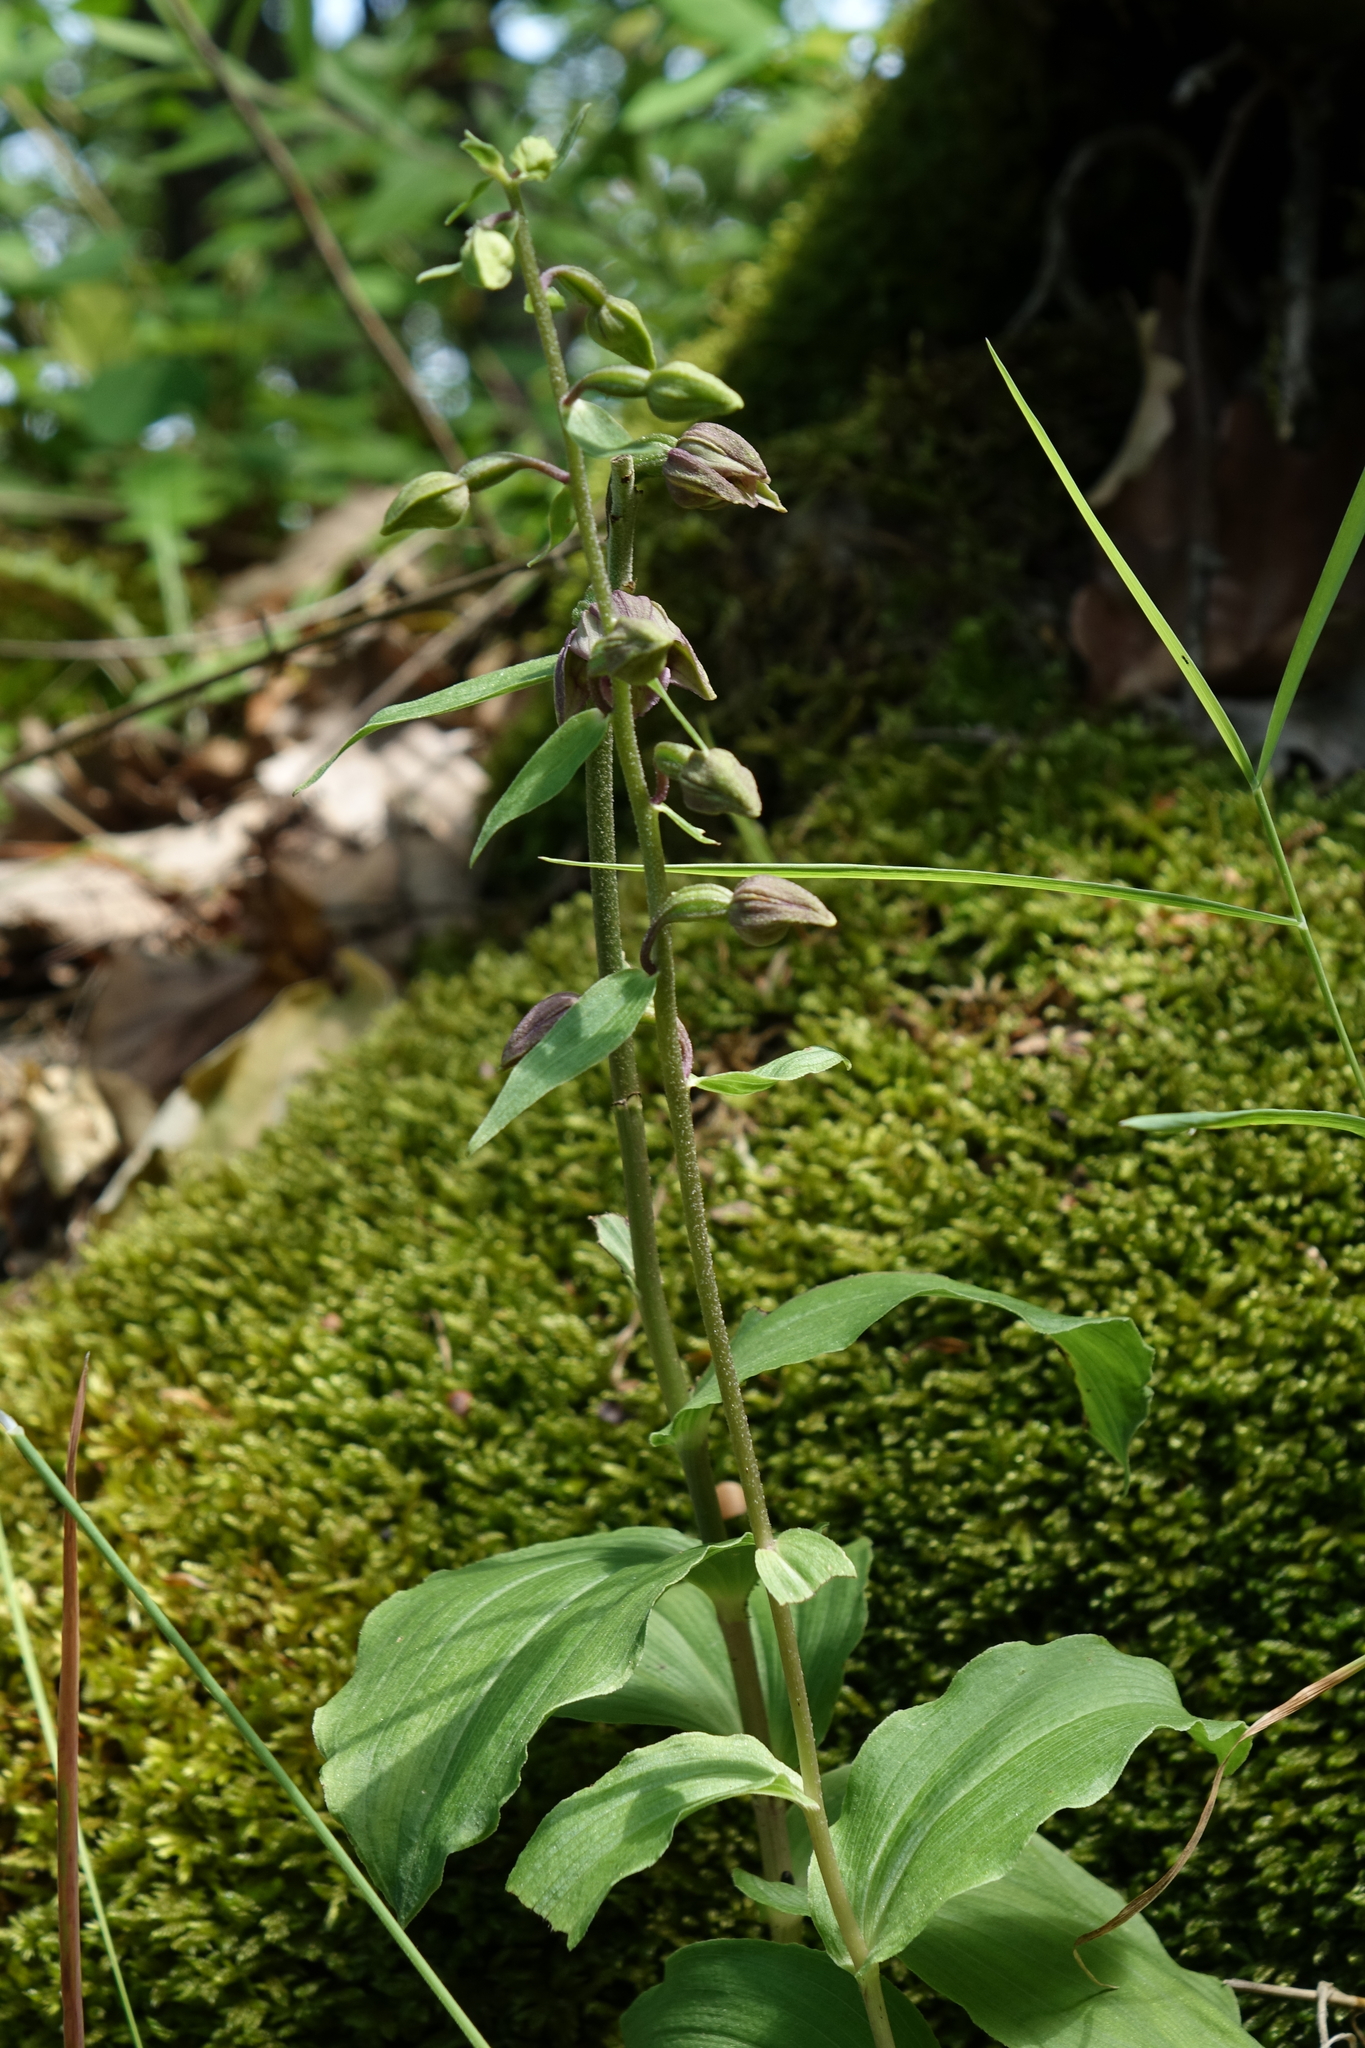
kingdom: Plantae
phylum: Tracheophyta
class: Liliopsida
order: Asparagales
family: Orchidaceae
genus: Epipactis
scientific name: Epipactis helleborine
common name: Broad-leaved helleborine
